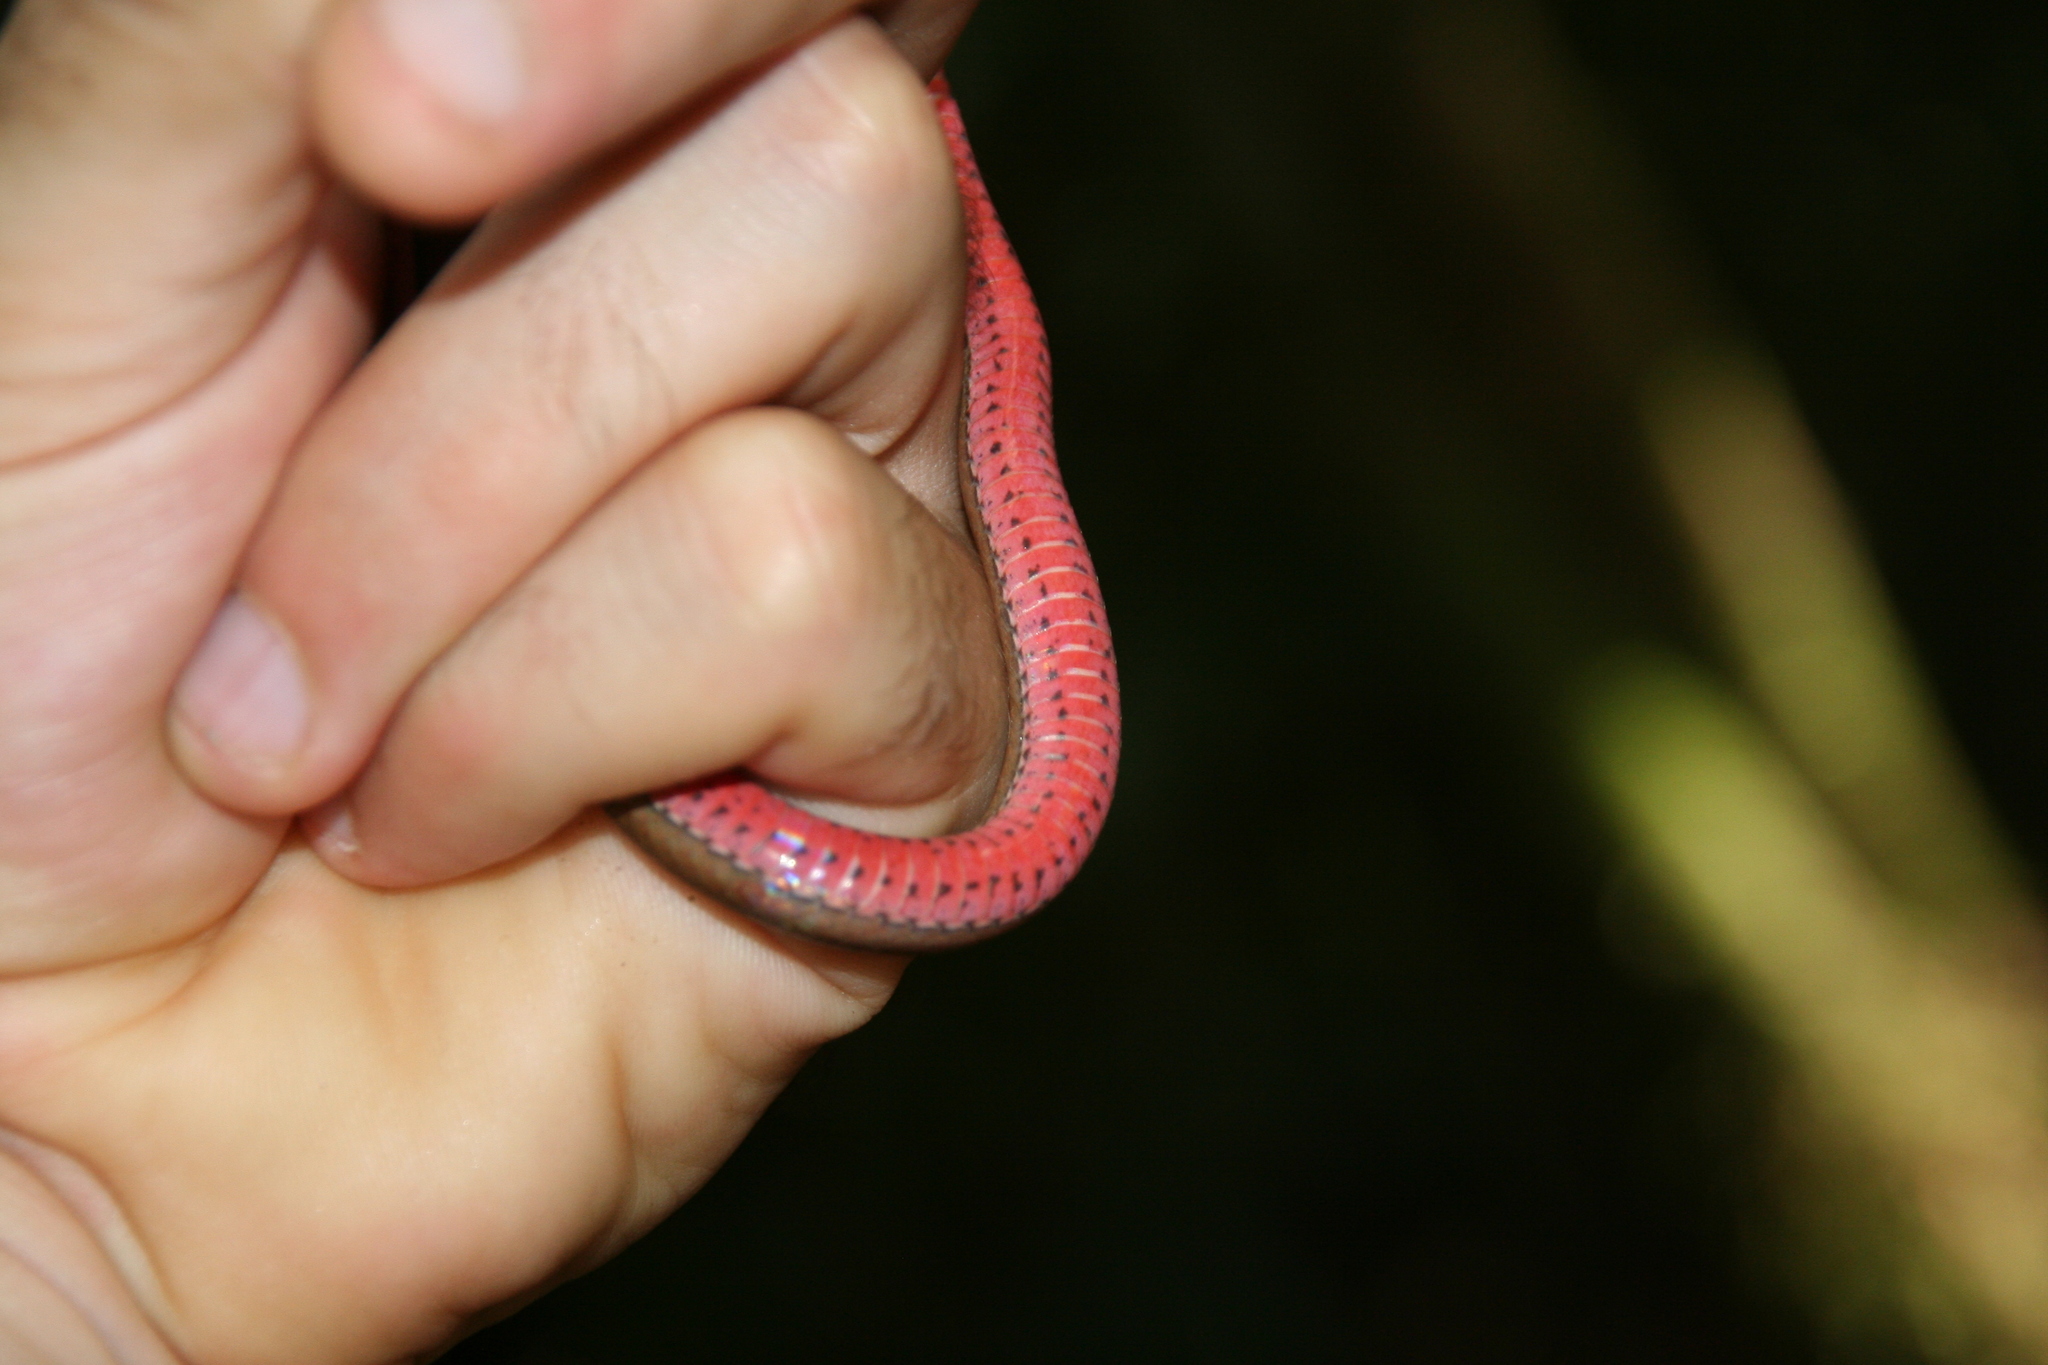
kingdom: Animalia
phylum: Chordata
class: Squamata
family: Pseudoxyrhophiidae
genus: Liopholidophis
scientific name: Liopholidophis rhadinaea
